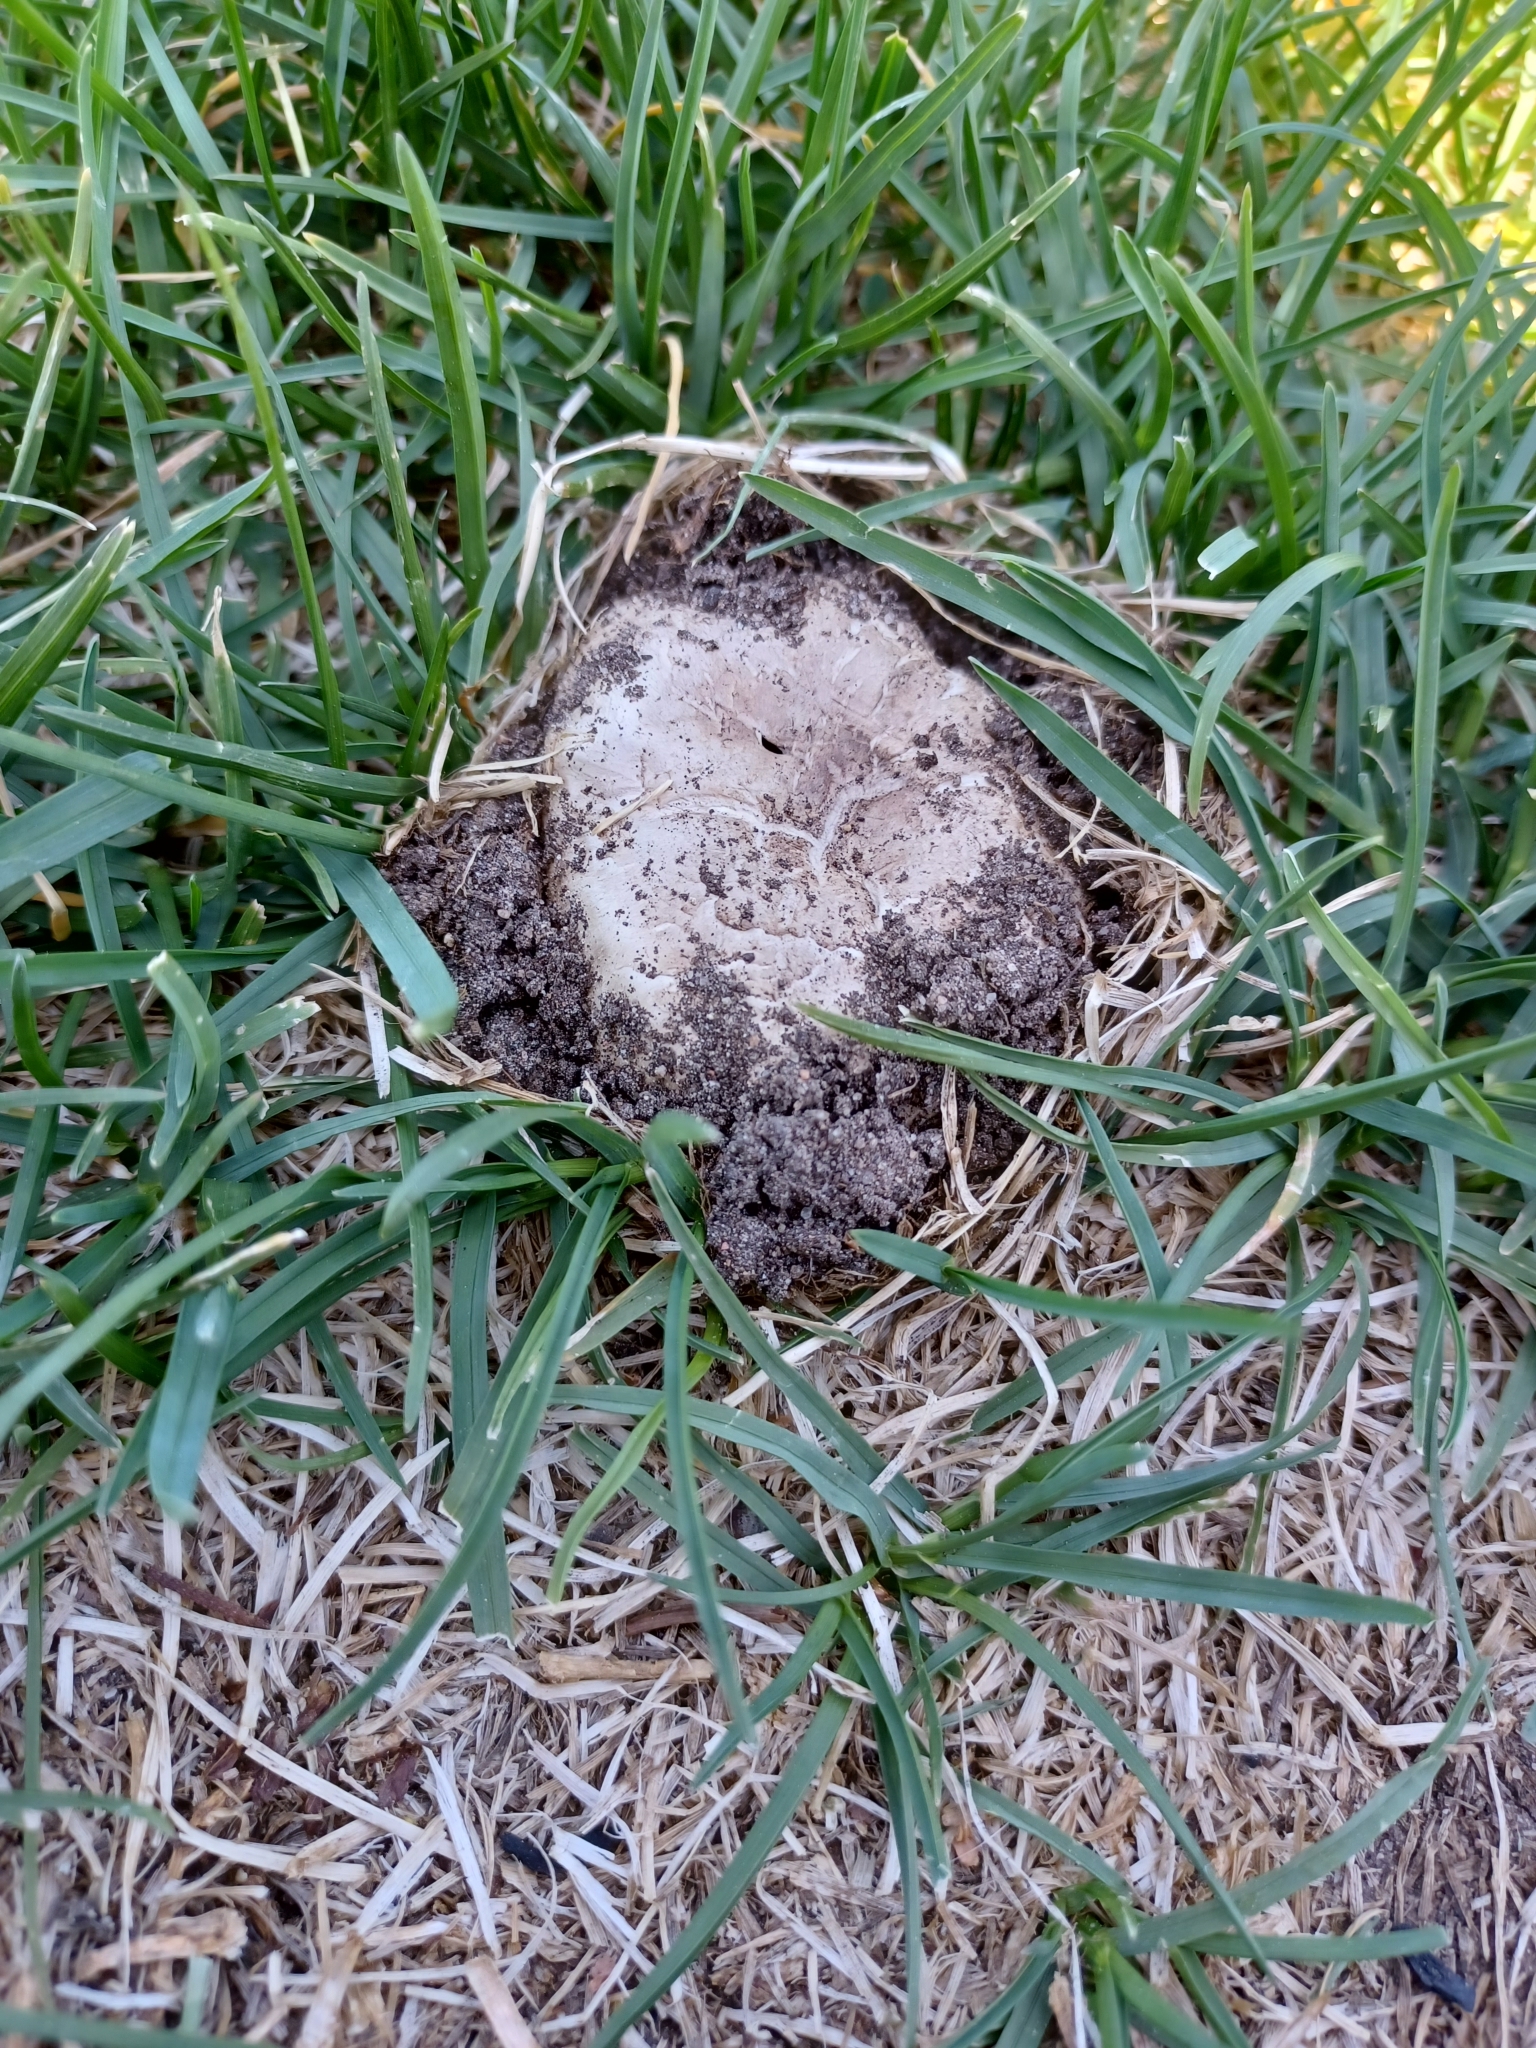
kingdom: Fungi
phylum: Basidiomycota
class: Agaricomycetes
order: Agaricales
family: Agaricaceae
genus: Agaricus
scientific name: Agaricus bernardii
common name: Salty mushroom
